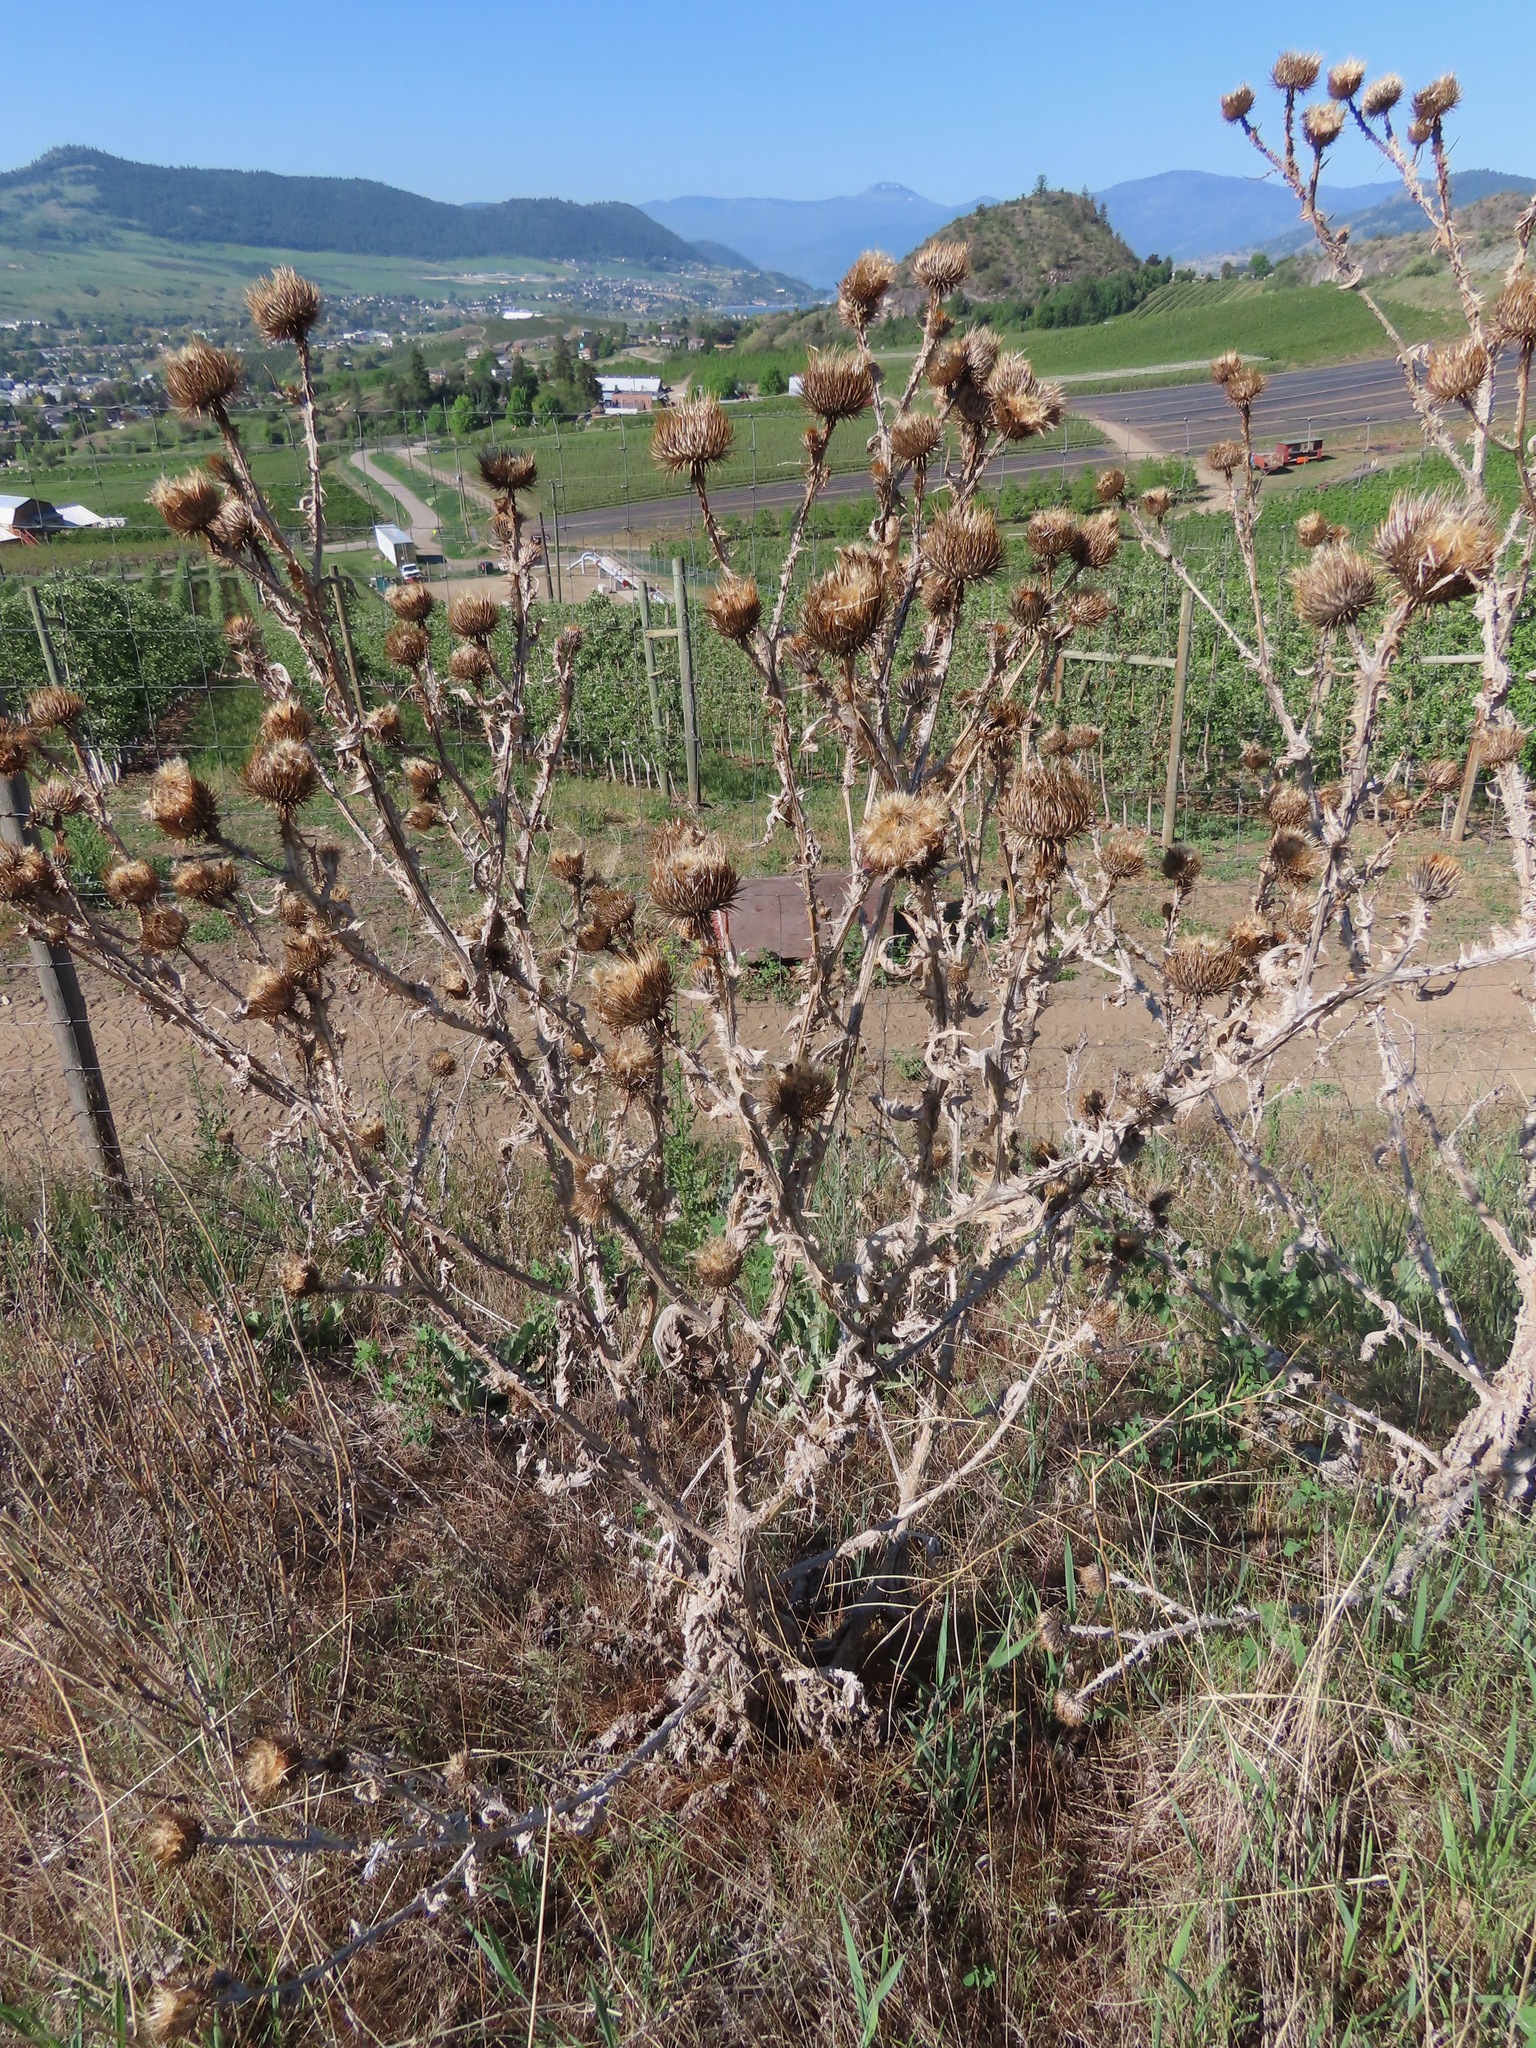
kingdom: Plantae
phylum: Tracheophyta
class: Magnoliopsida
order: Asterales
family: Asteraceae
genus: Onopordum
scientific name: Onopordum acanthium
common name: Scotch thistle
